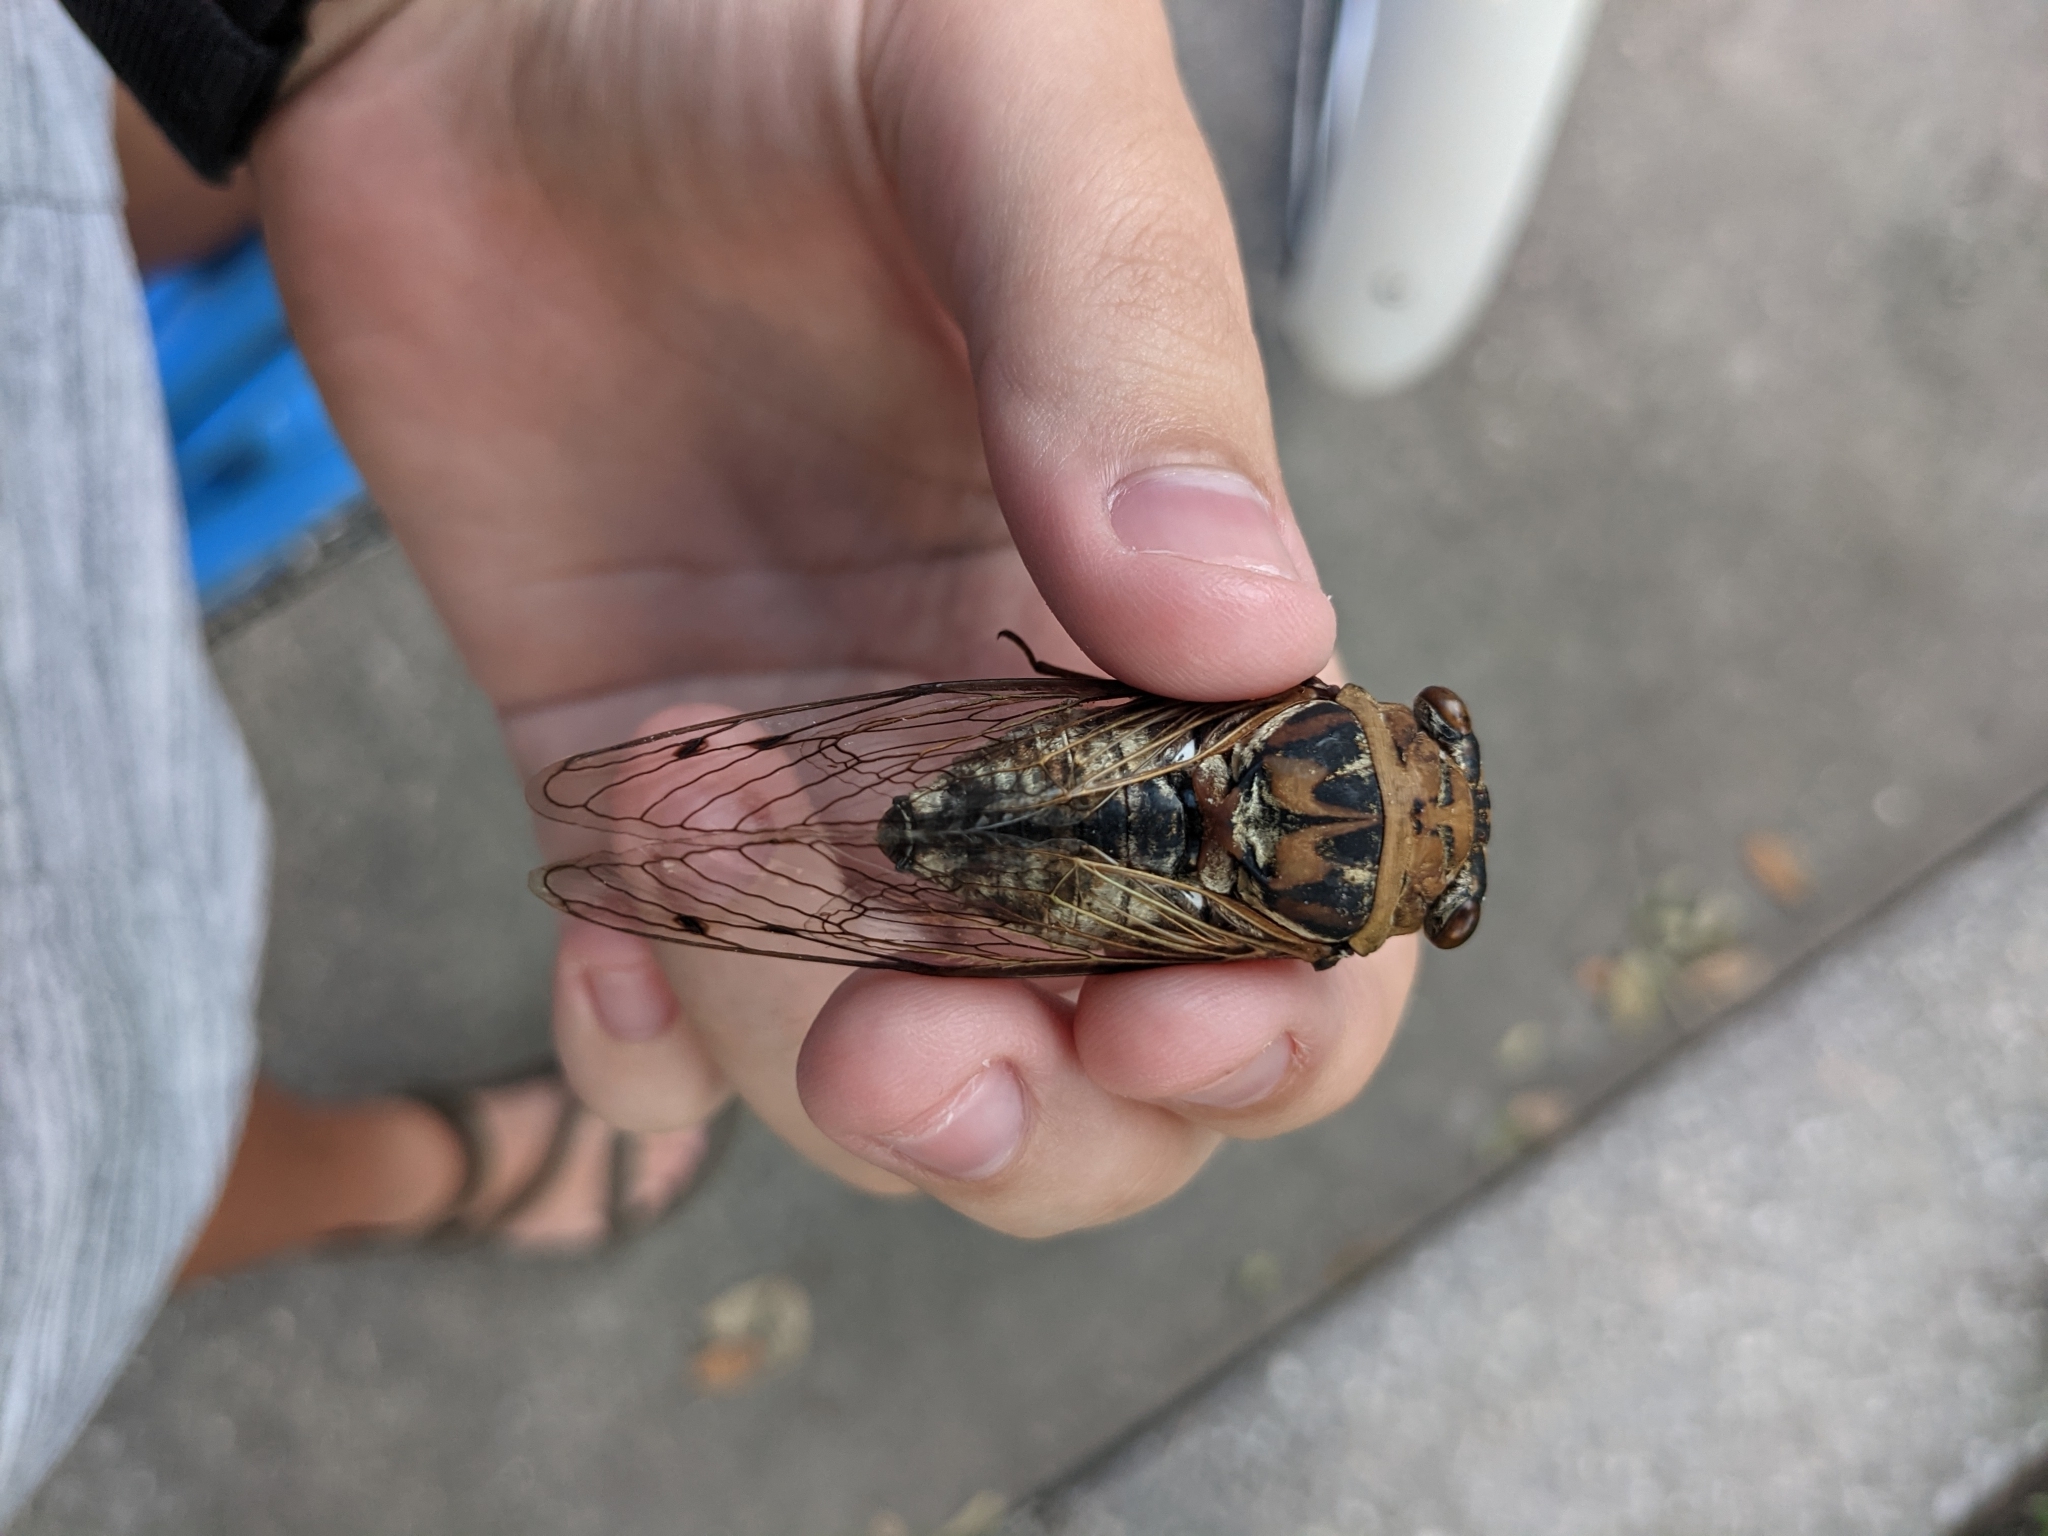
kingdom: Animalia
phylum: Arthropoda
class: Insecta
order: Hemiptera
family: Cicadidae
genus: Megatibicen
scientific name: Megatibicen resh
